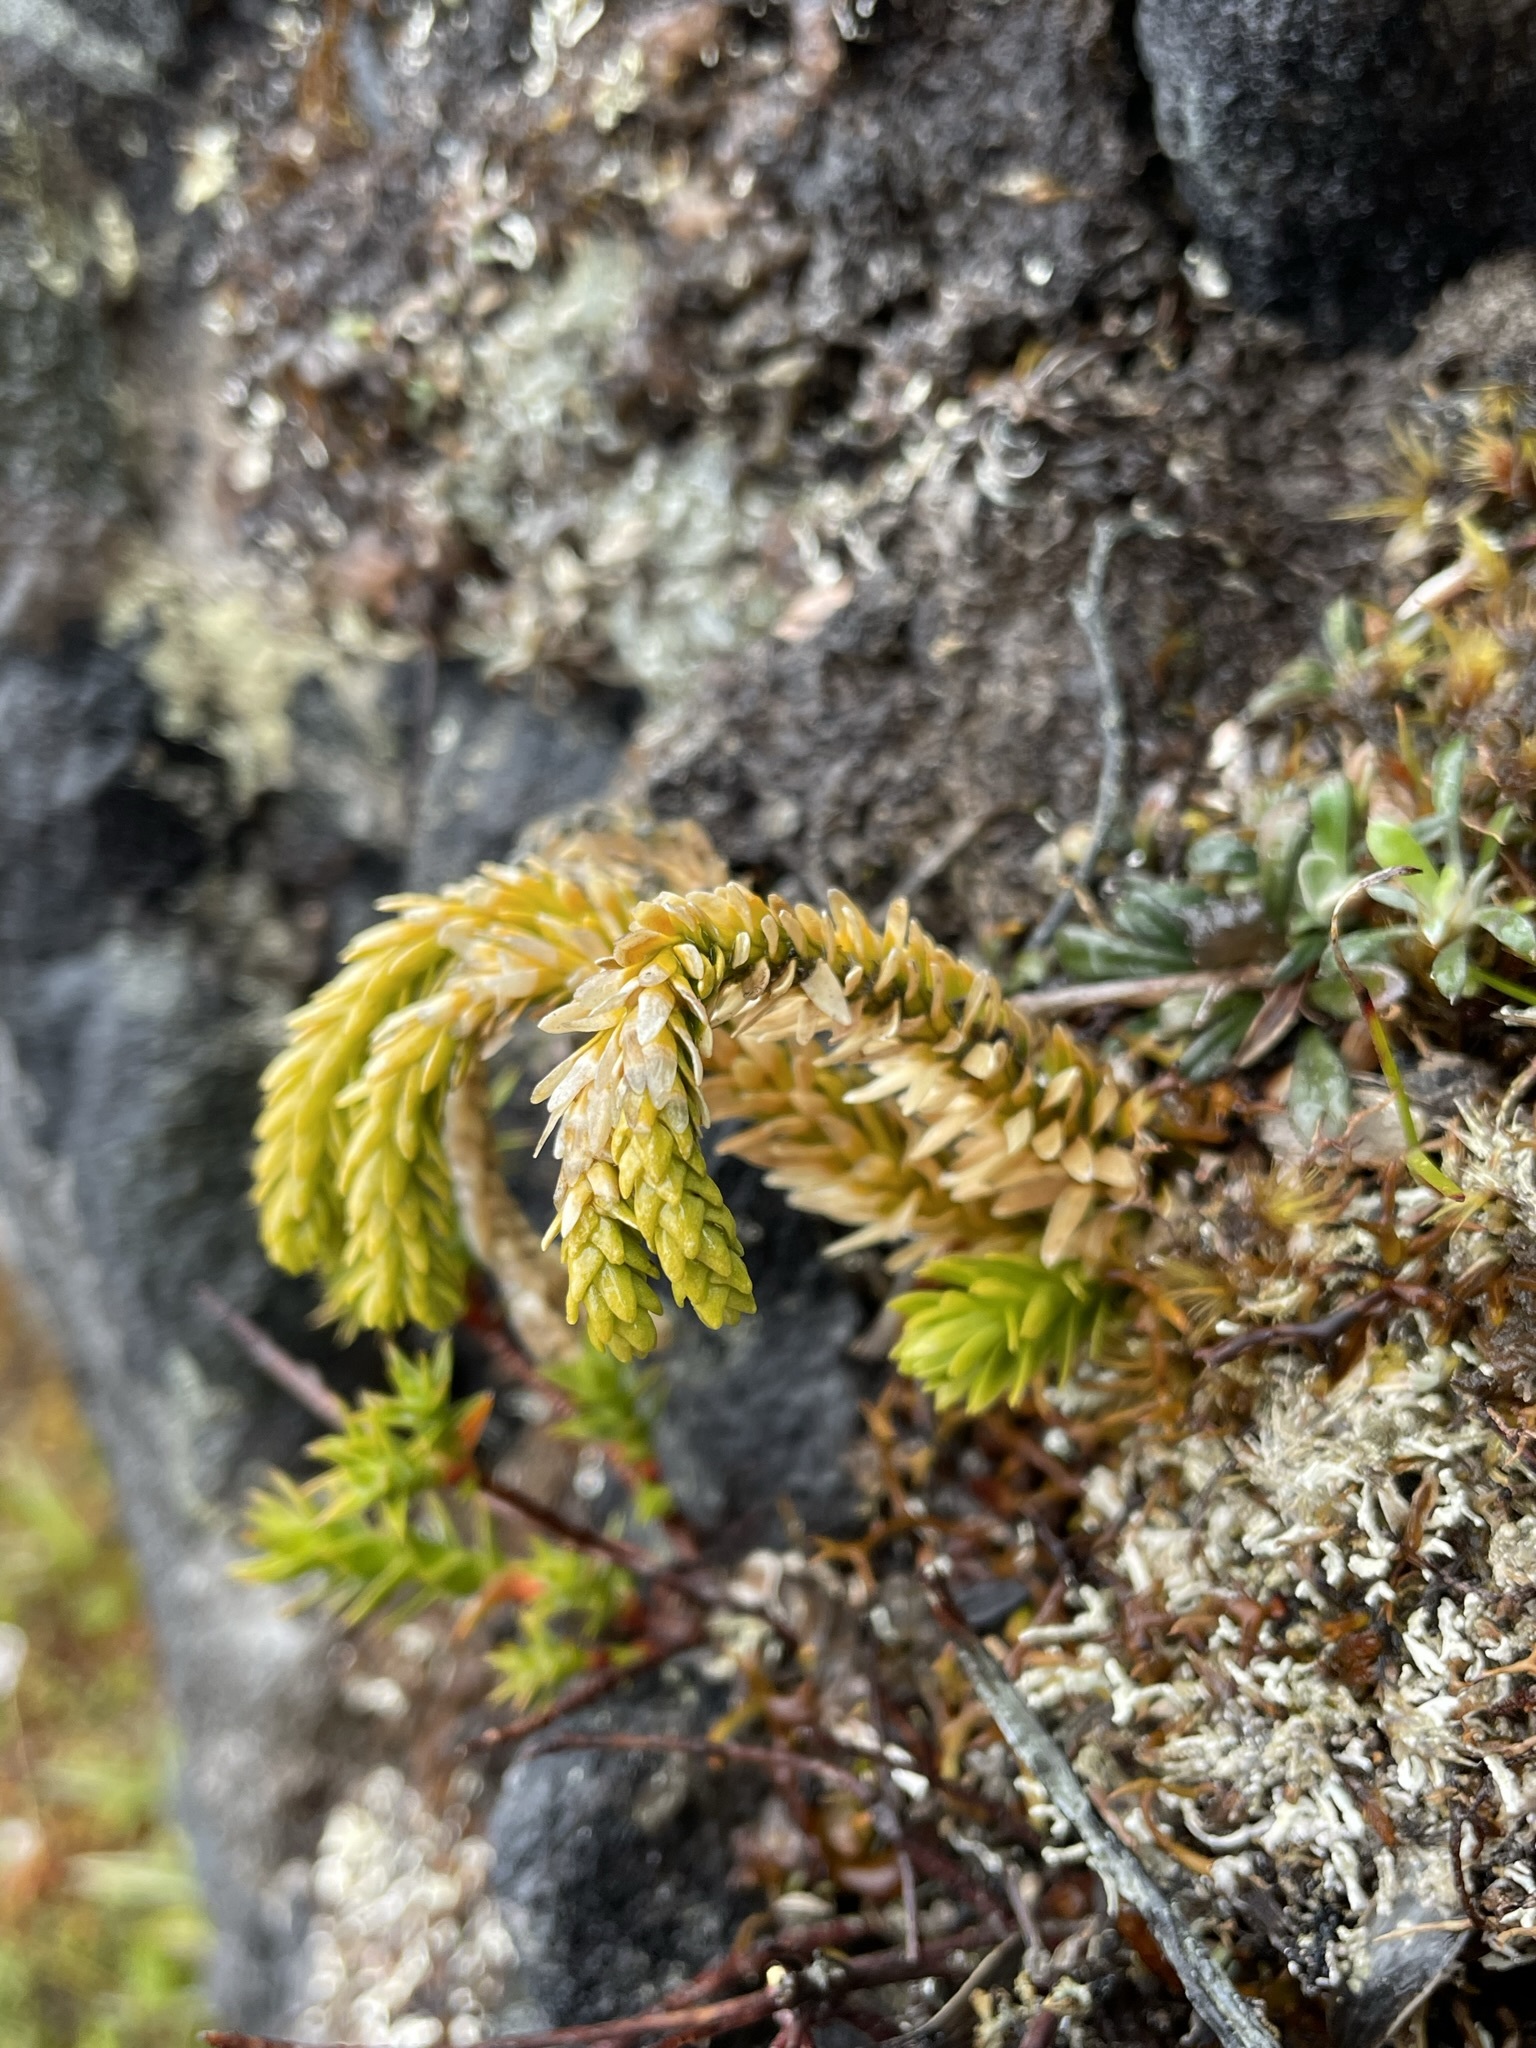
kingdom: Plantae
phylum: Tracheophyta
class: Lycopodiopsida
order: Lycopodiales
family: Lycopodiaceae
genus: Phlegmariurus
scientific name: Phlegmariurus varius
